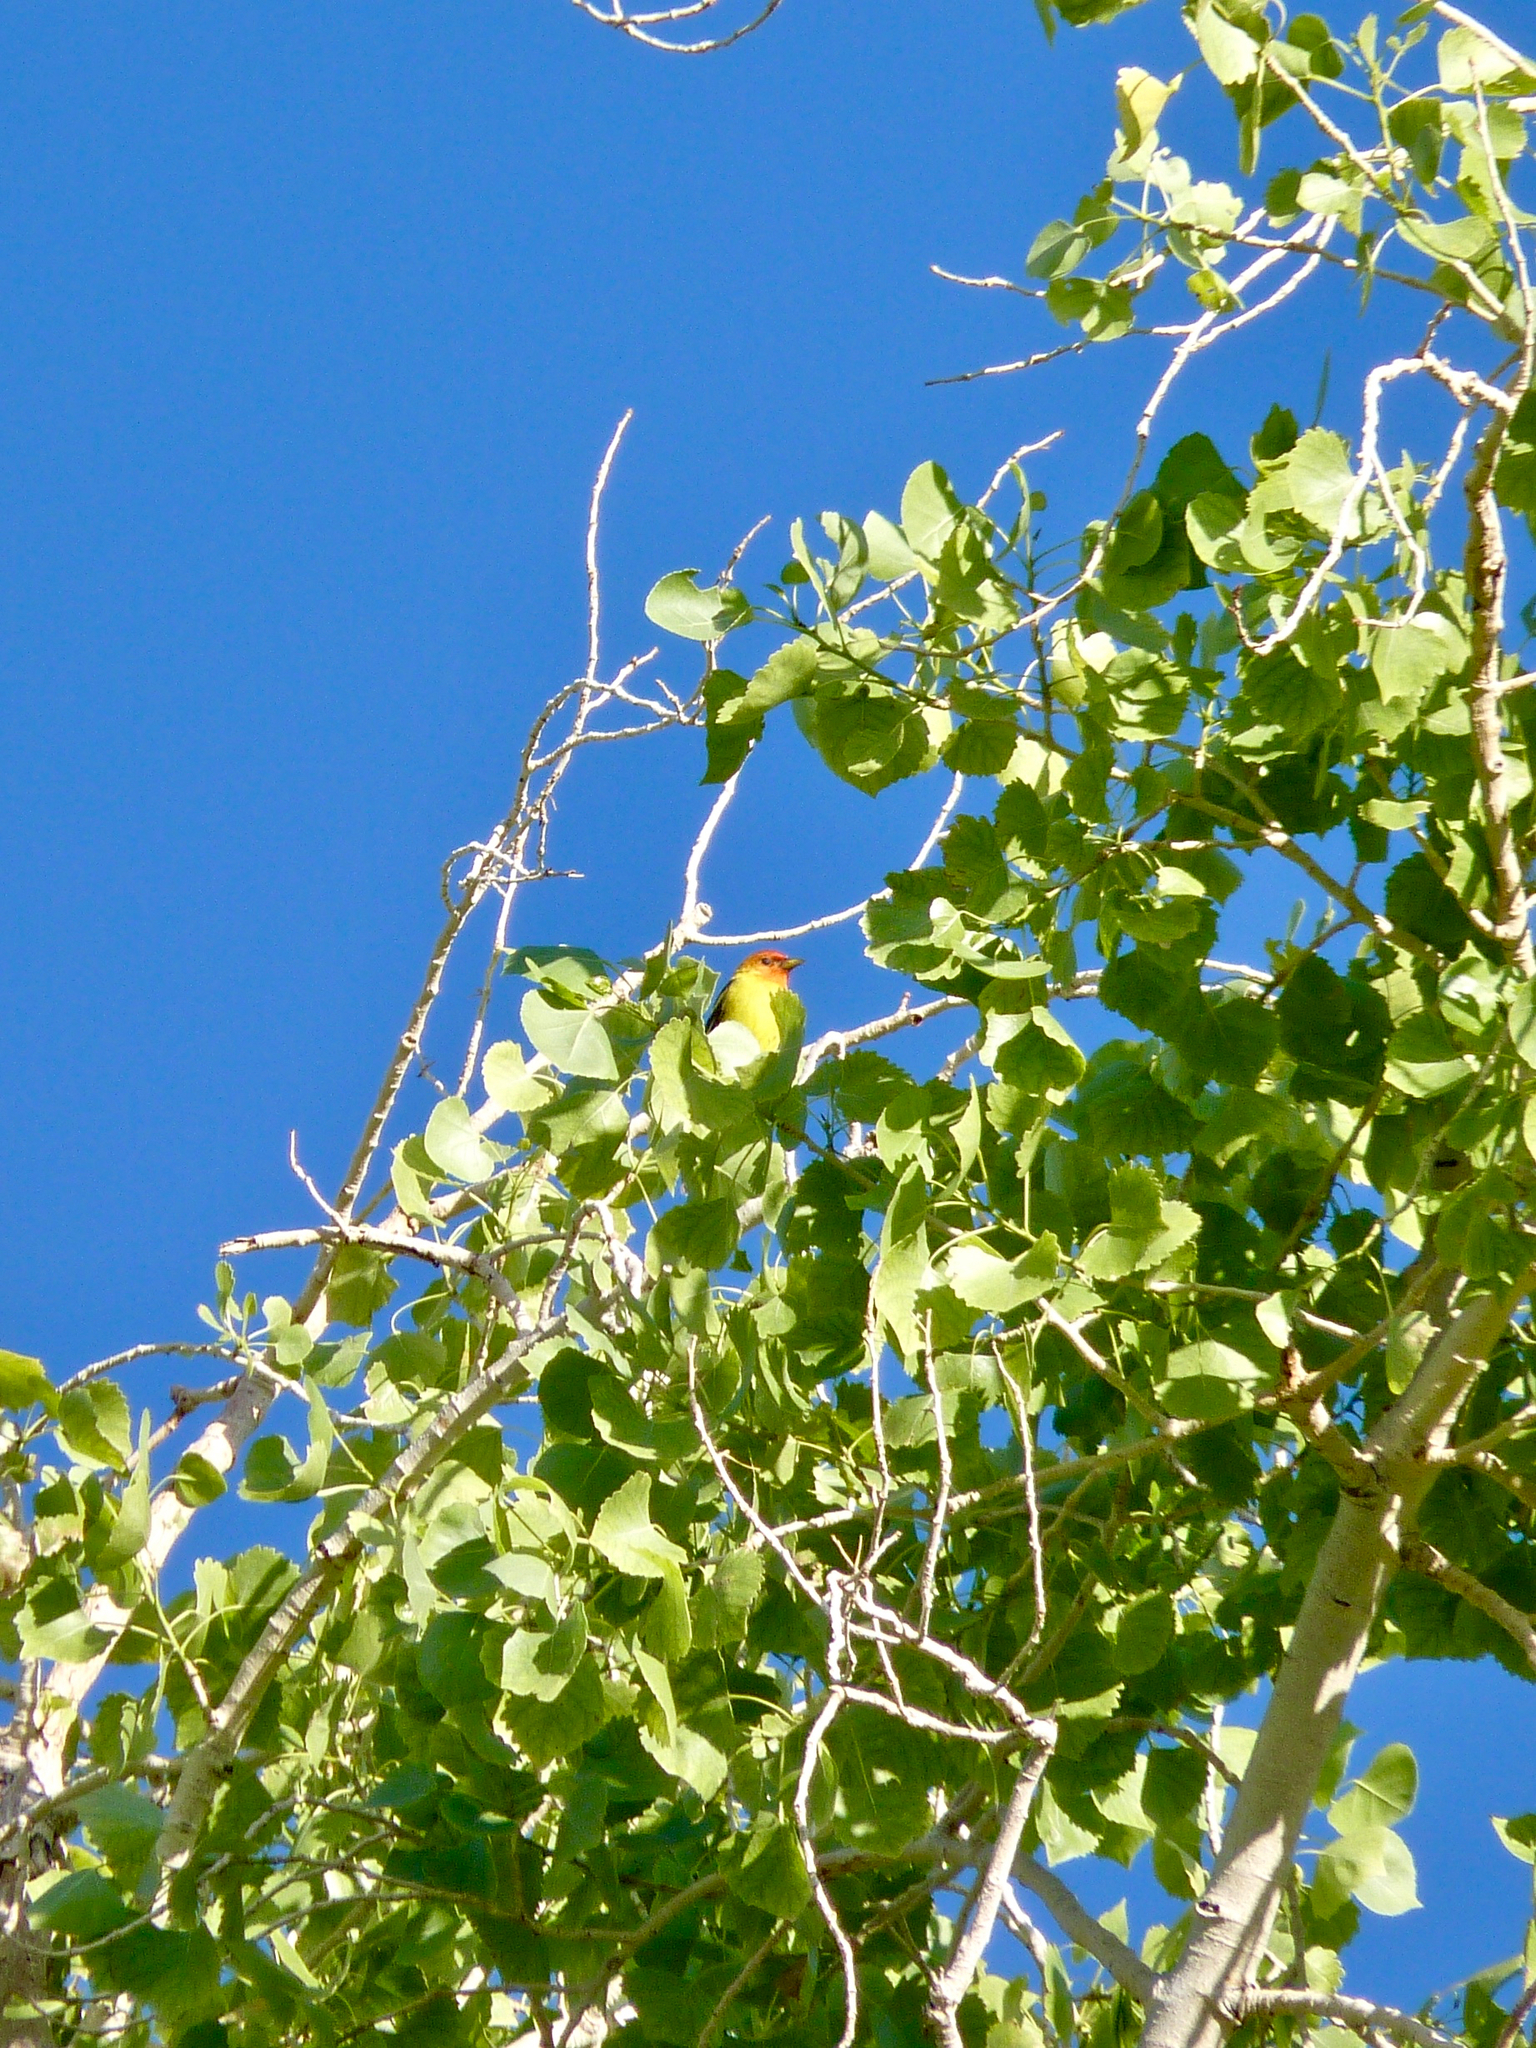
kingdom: Animalia
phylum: Chordata
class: Aves
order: Passeriformes
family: Cardinalidae
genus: Piranga
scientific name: Piranga ludoviciana
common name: Western tanager
